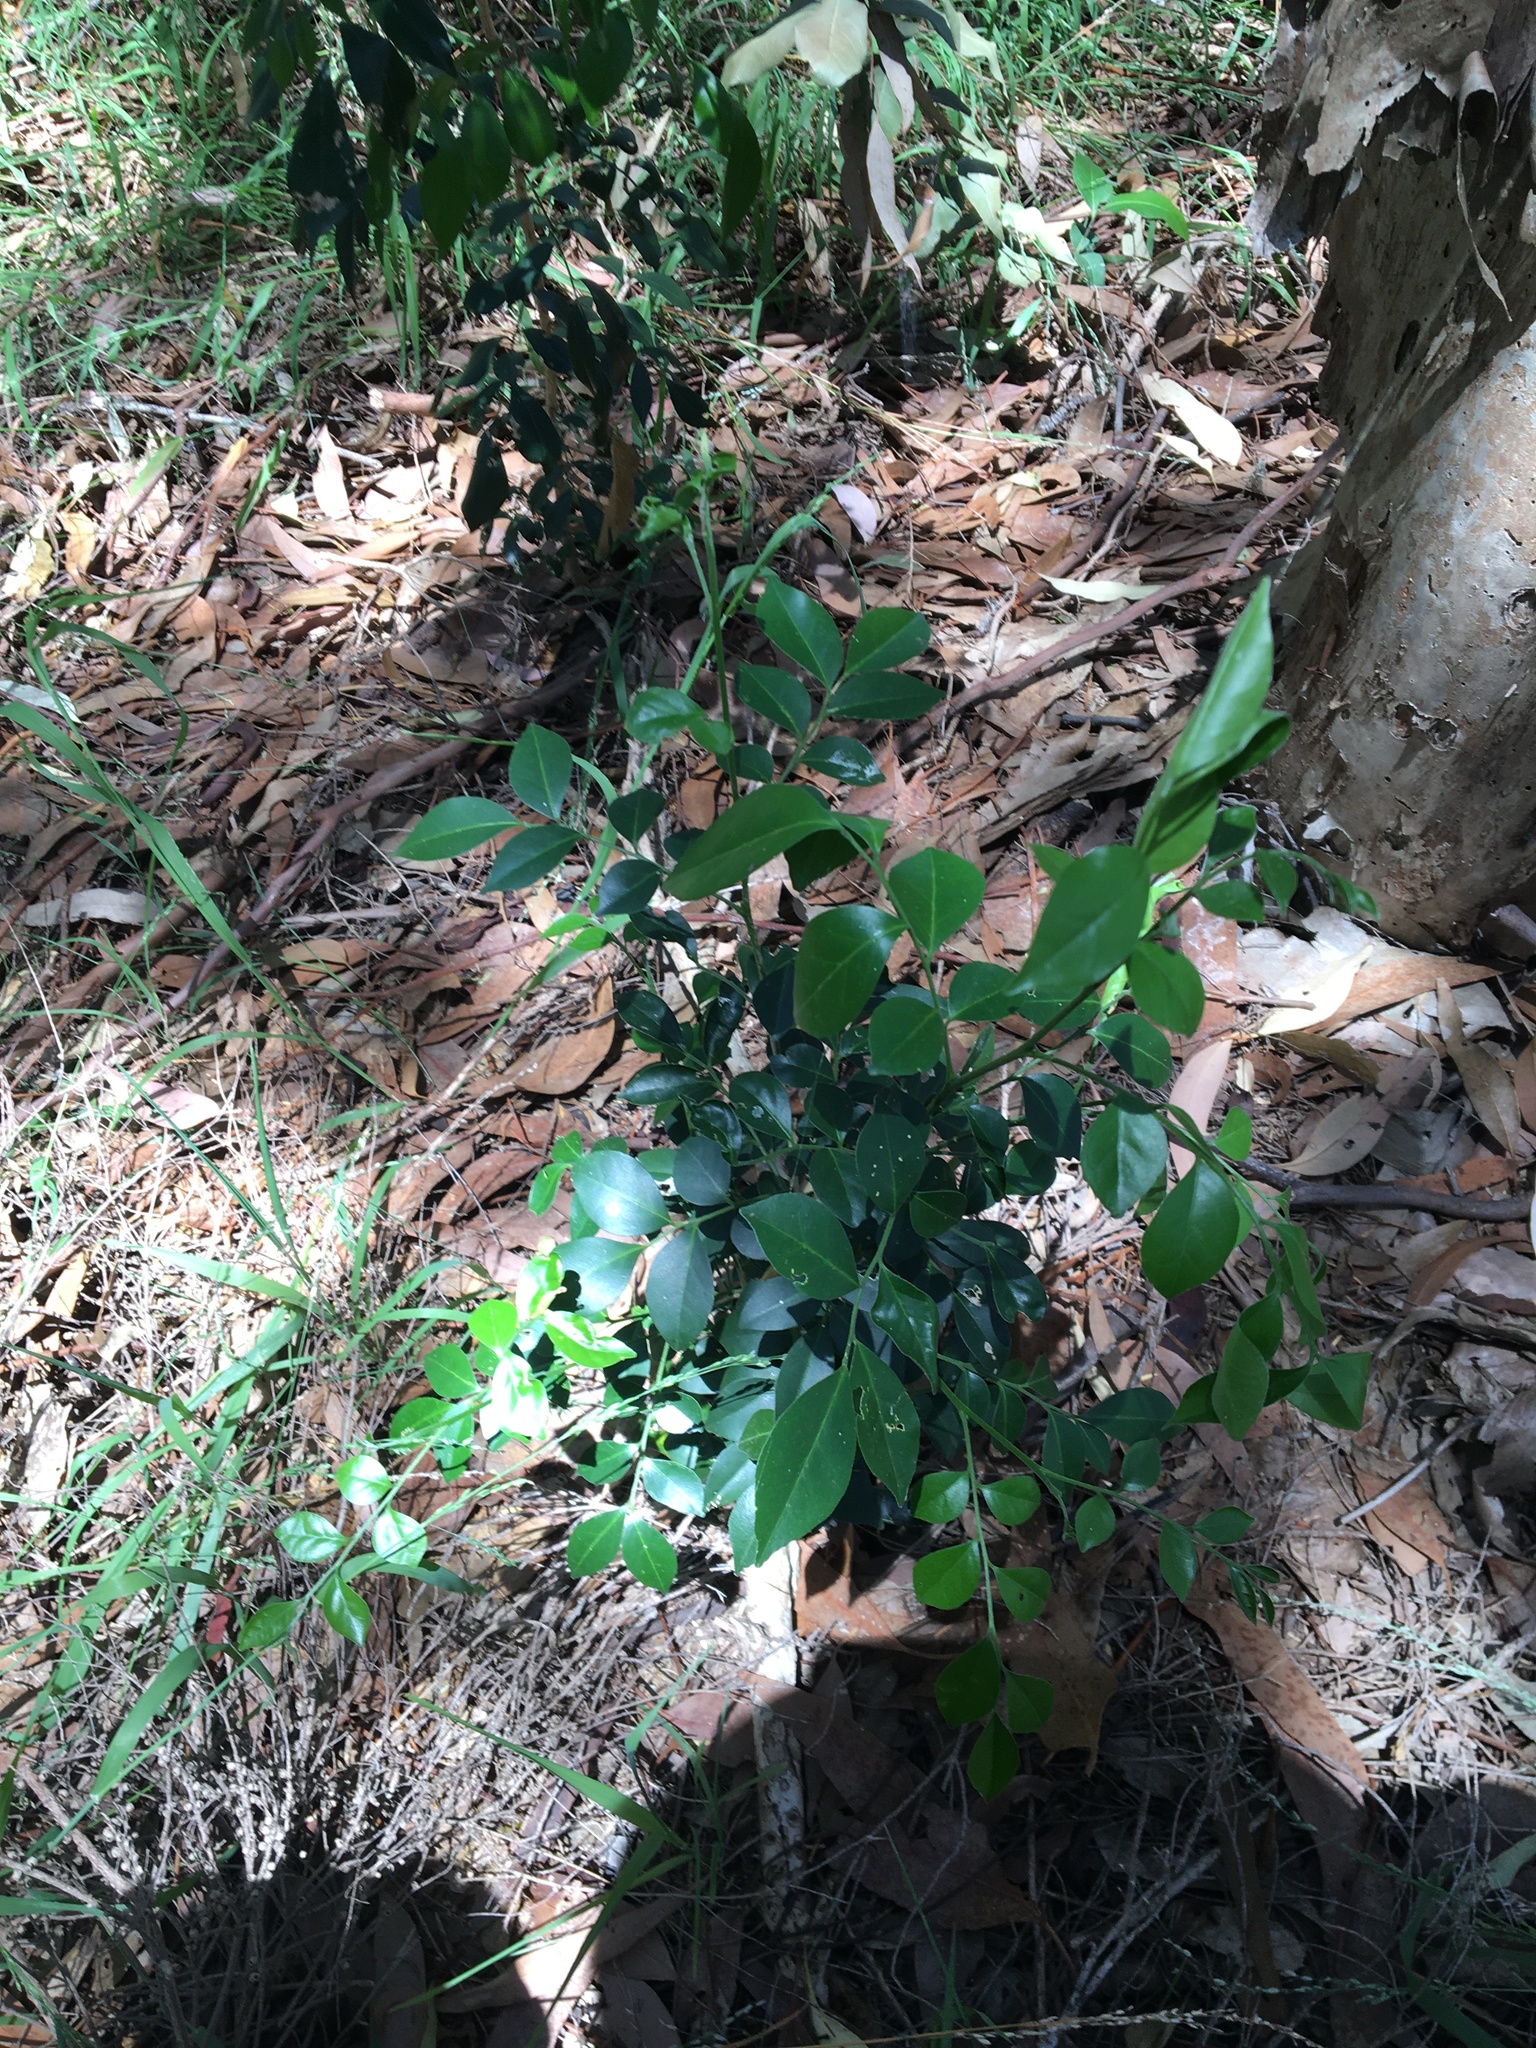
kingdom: Plantae
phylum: Tracheophyta
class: Magnoliopsida
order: Sapindales
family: Rutaceae
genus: Murraya
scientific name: Murraya paniculata
